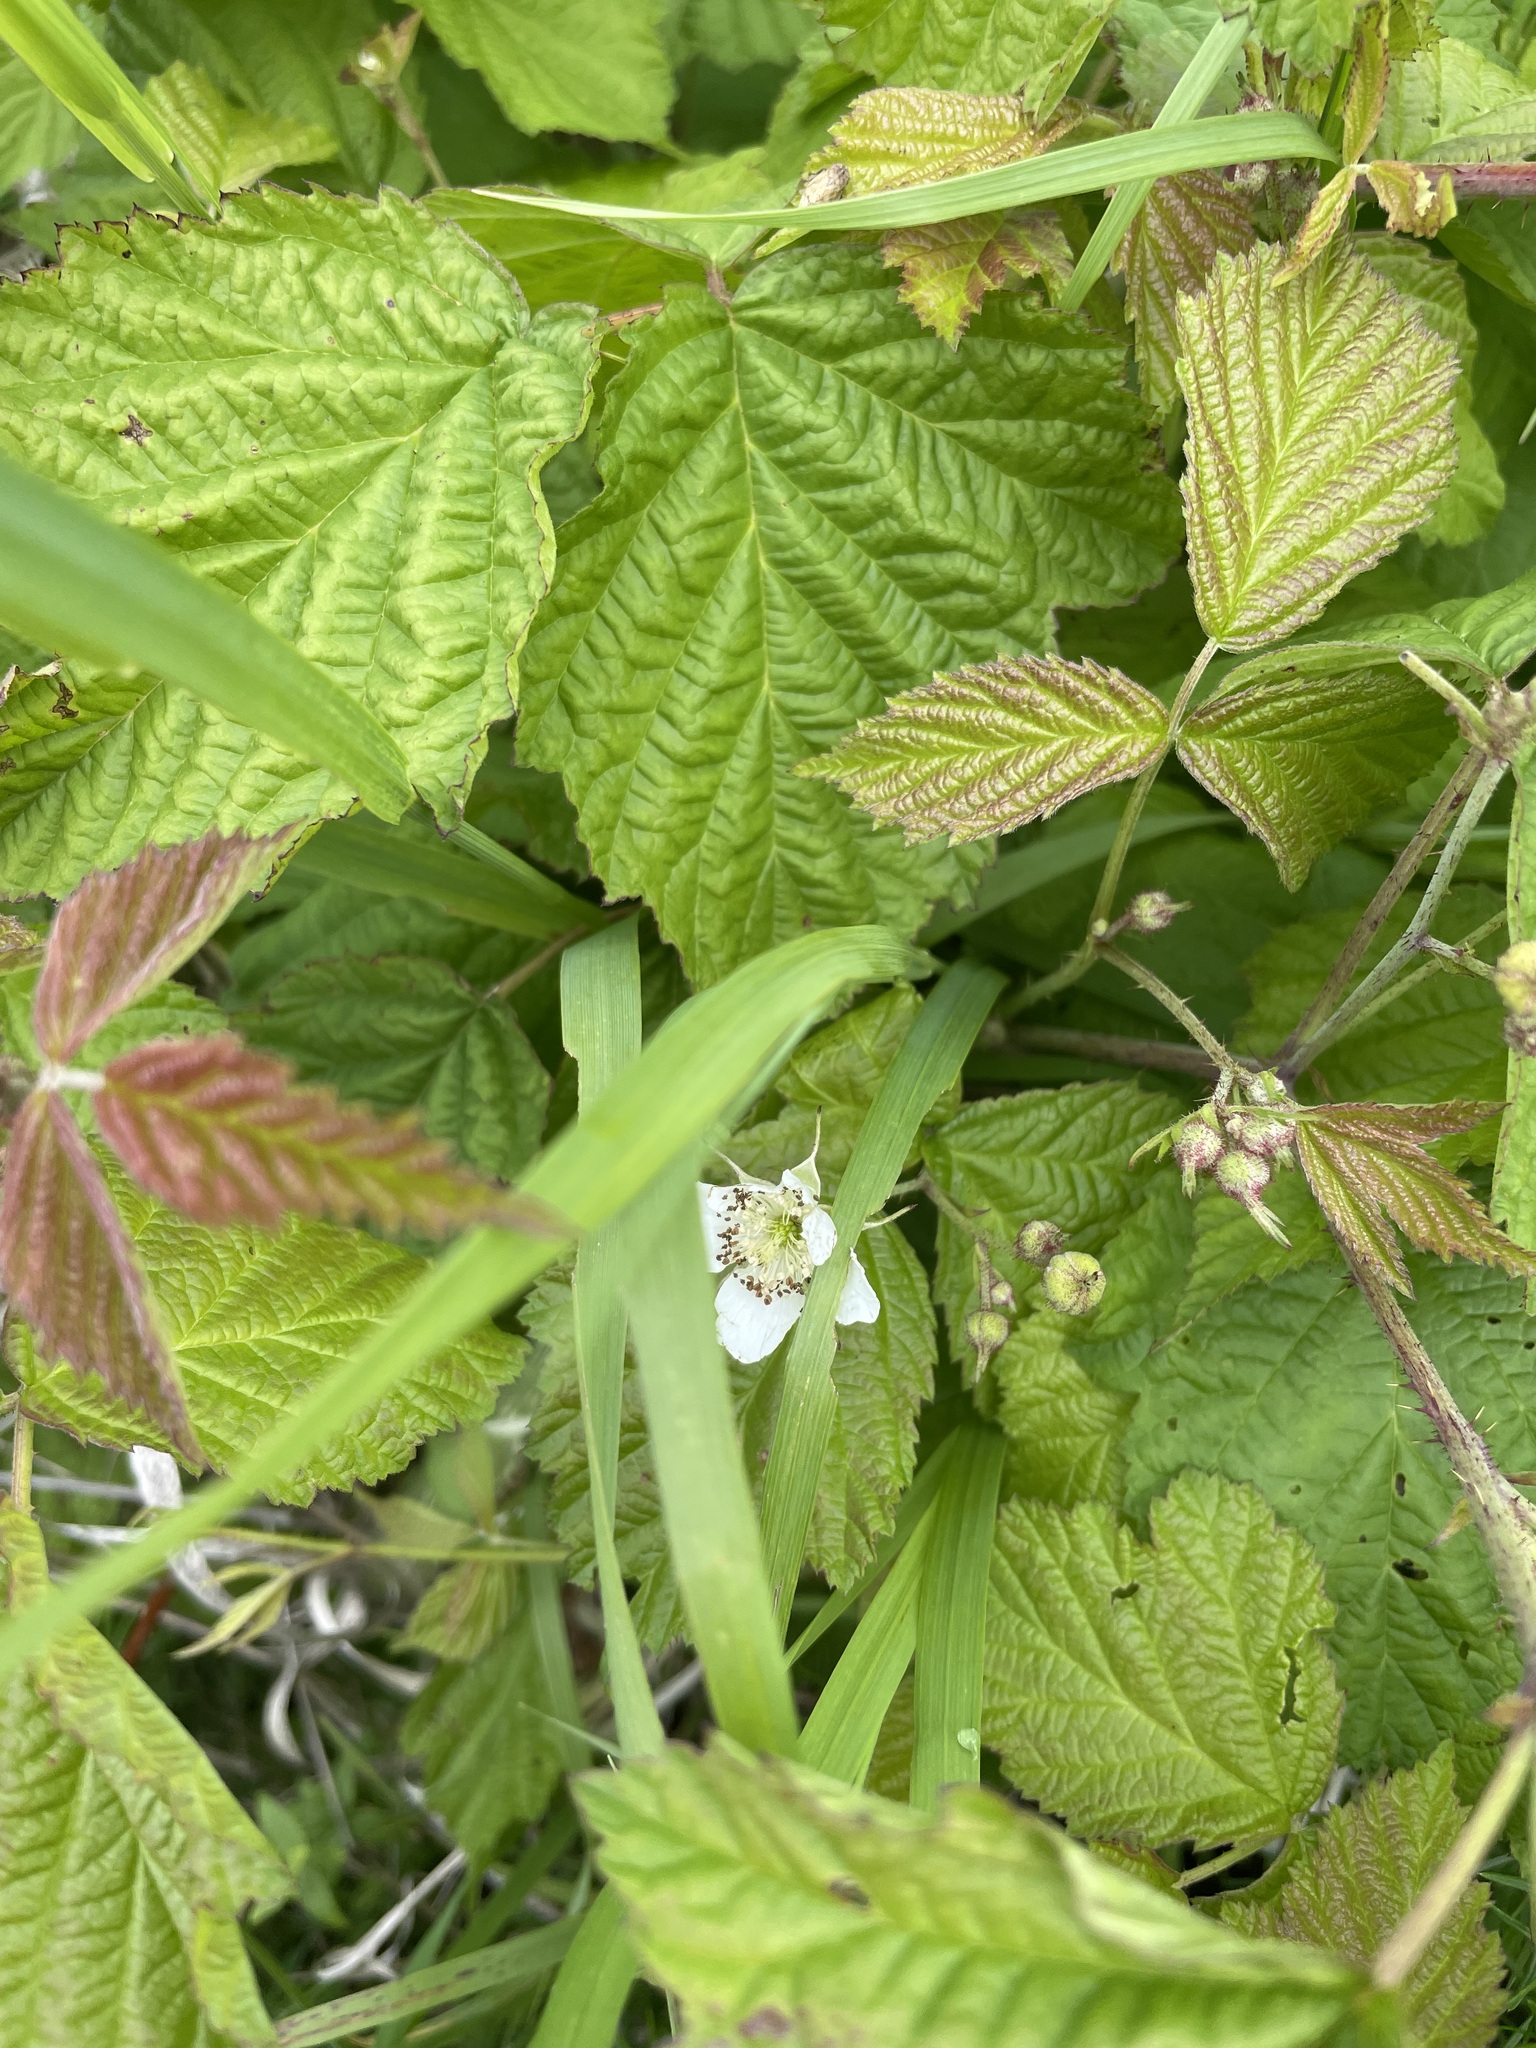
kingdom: Plantae
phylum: Tracheophyta
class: Magnoliopsida
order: Rosales
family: Rosaceae
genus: Rubus
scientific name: Rubus caesius
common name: Dewberry
